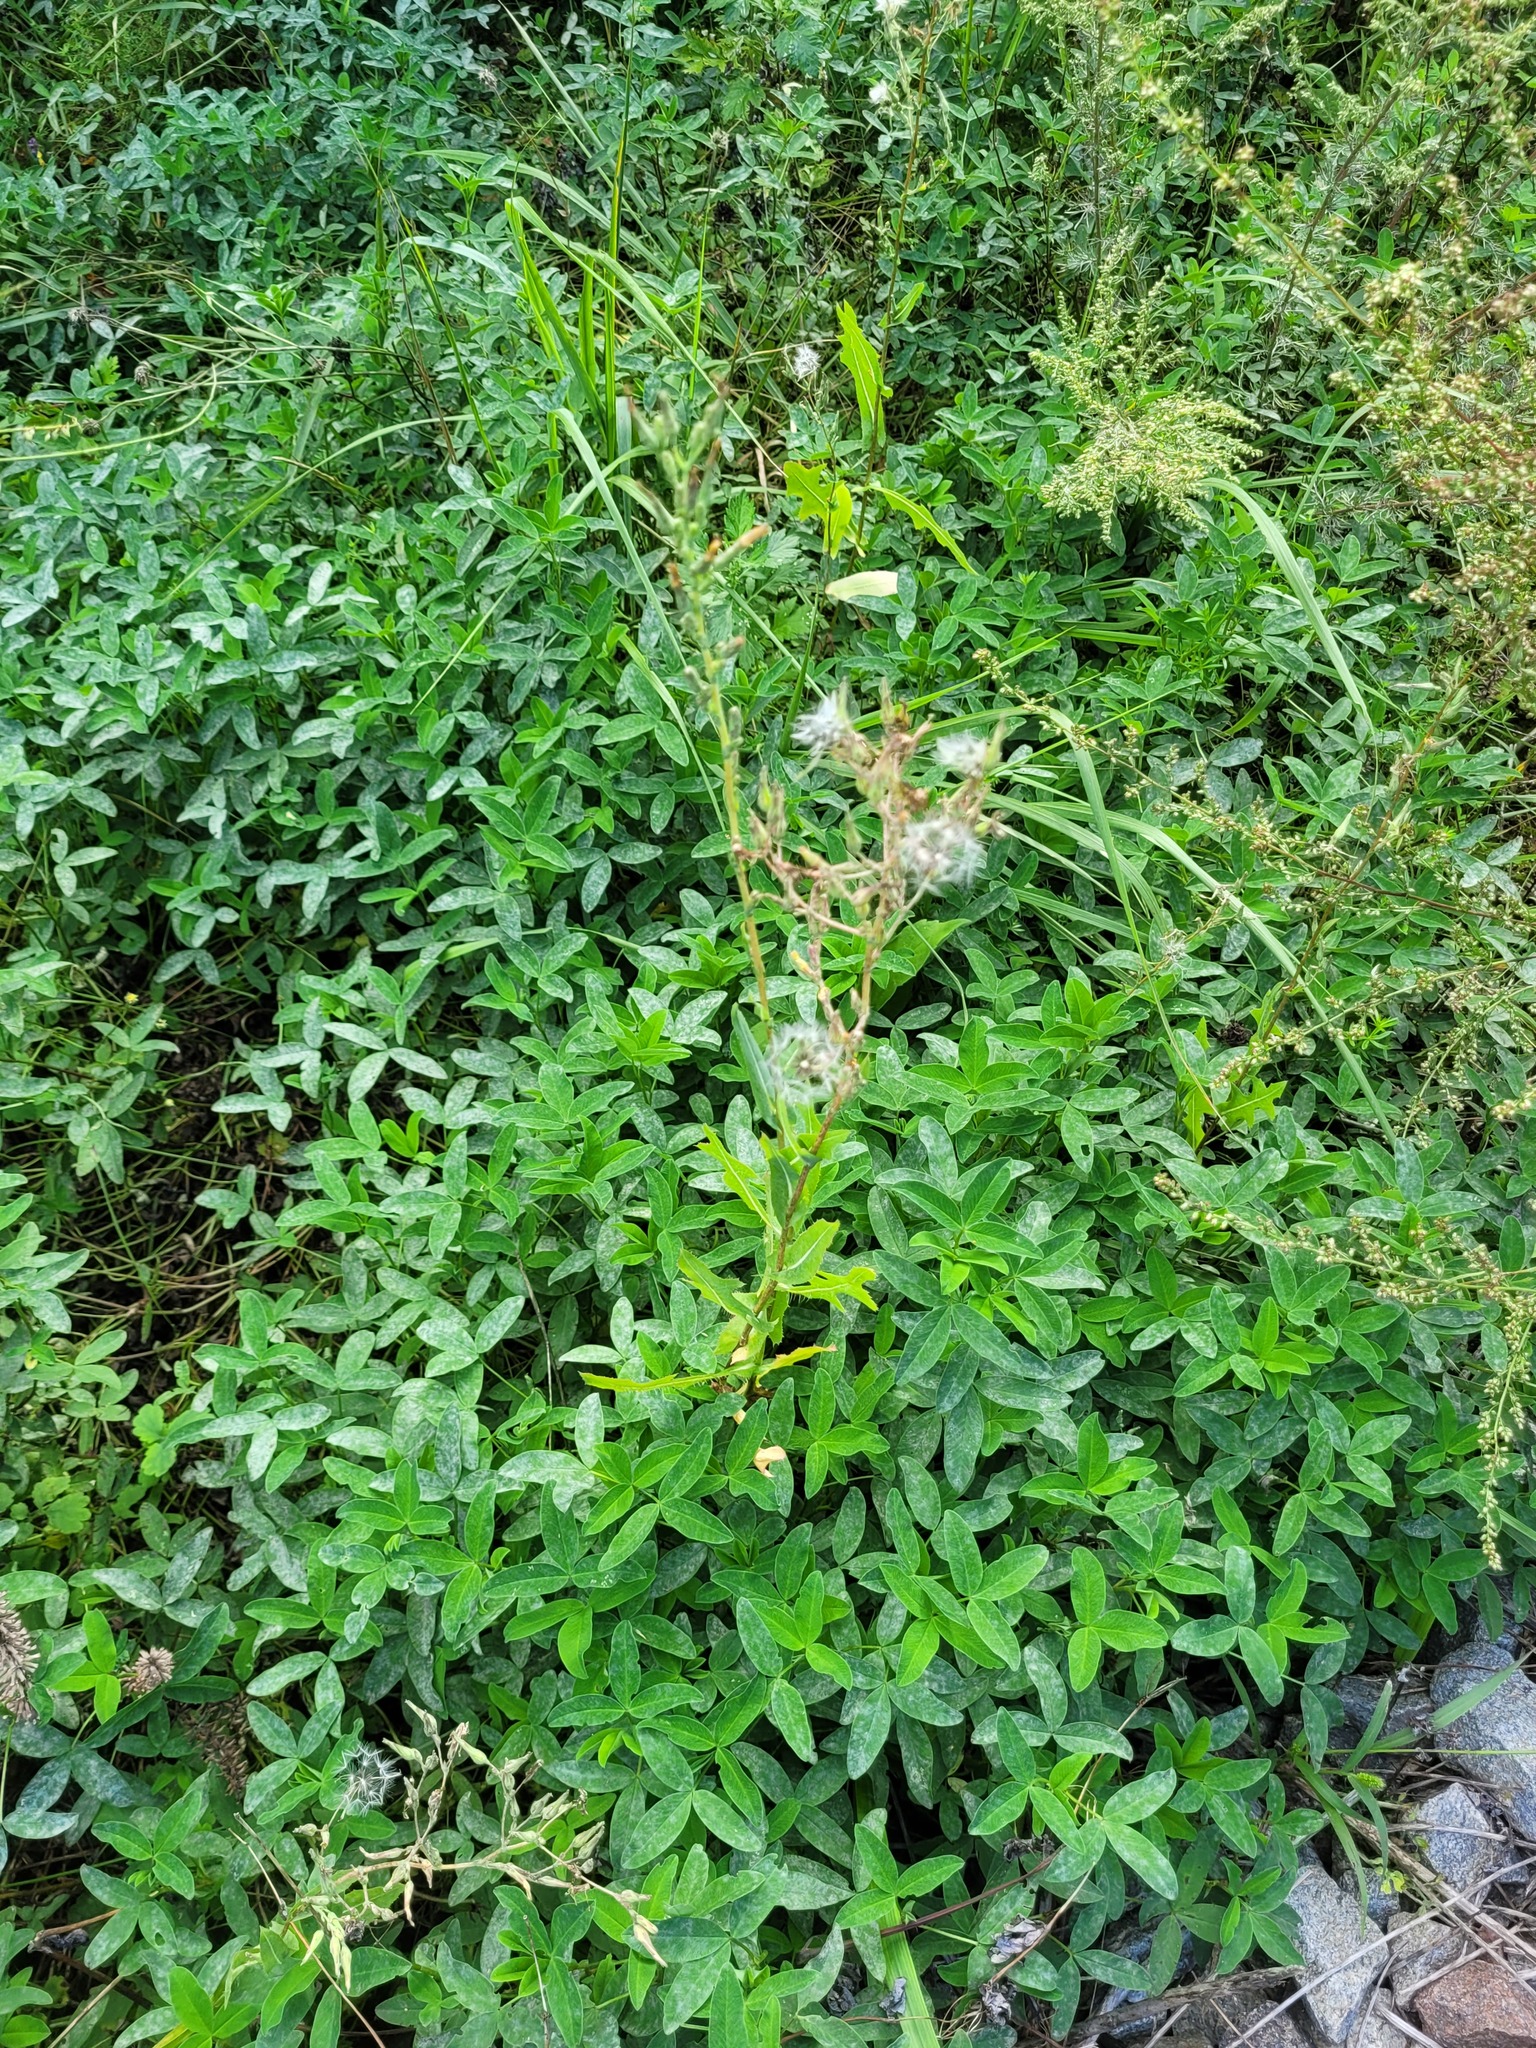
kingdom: Plantae
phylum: Tracheophyta
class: Magnoliopsida
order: Asterales
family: Asteraceae
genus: Lactuca
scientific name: Lactuca serriola
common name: Prickly lettuce
